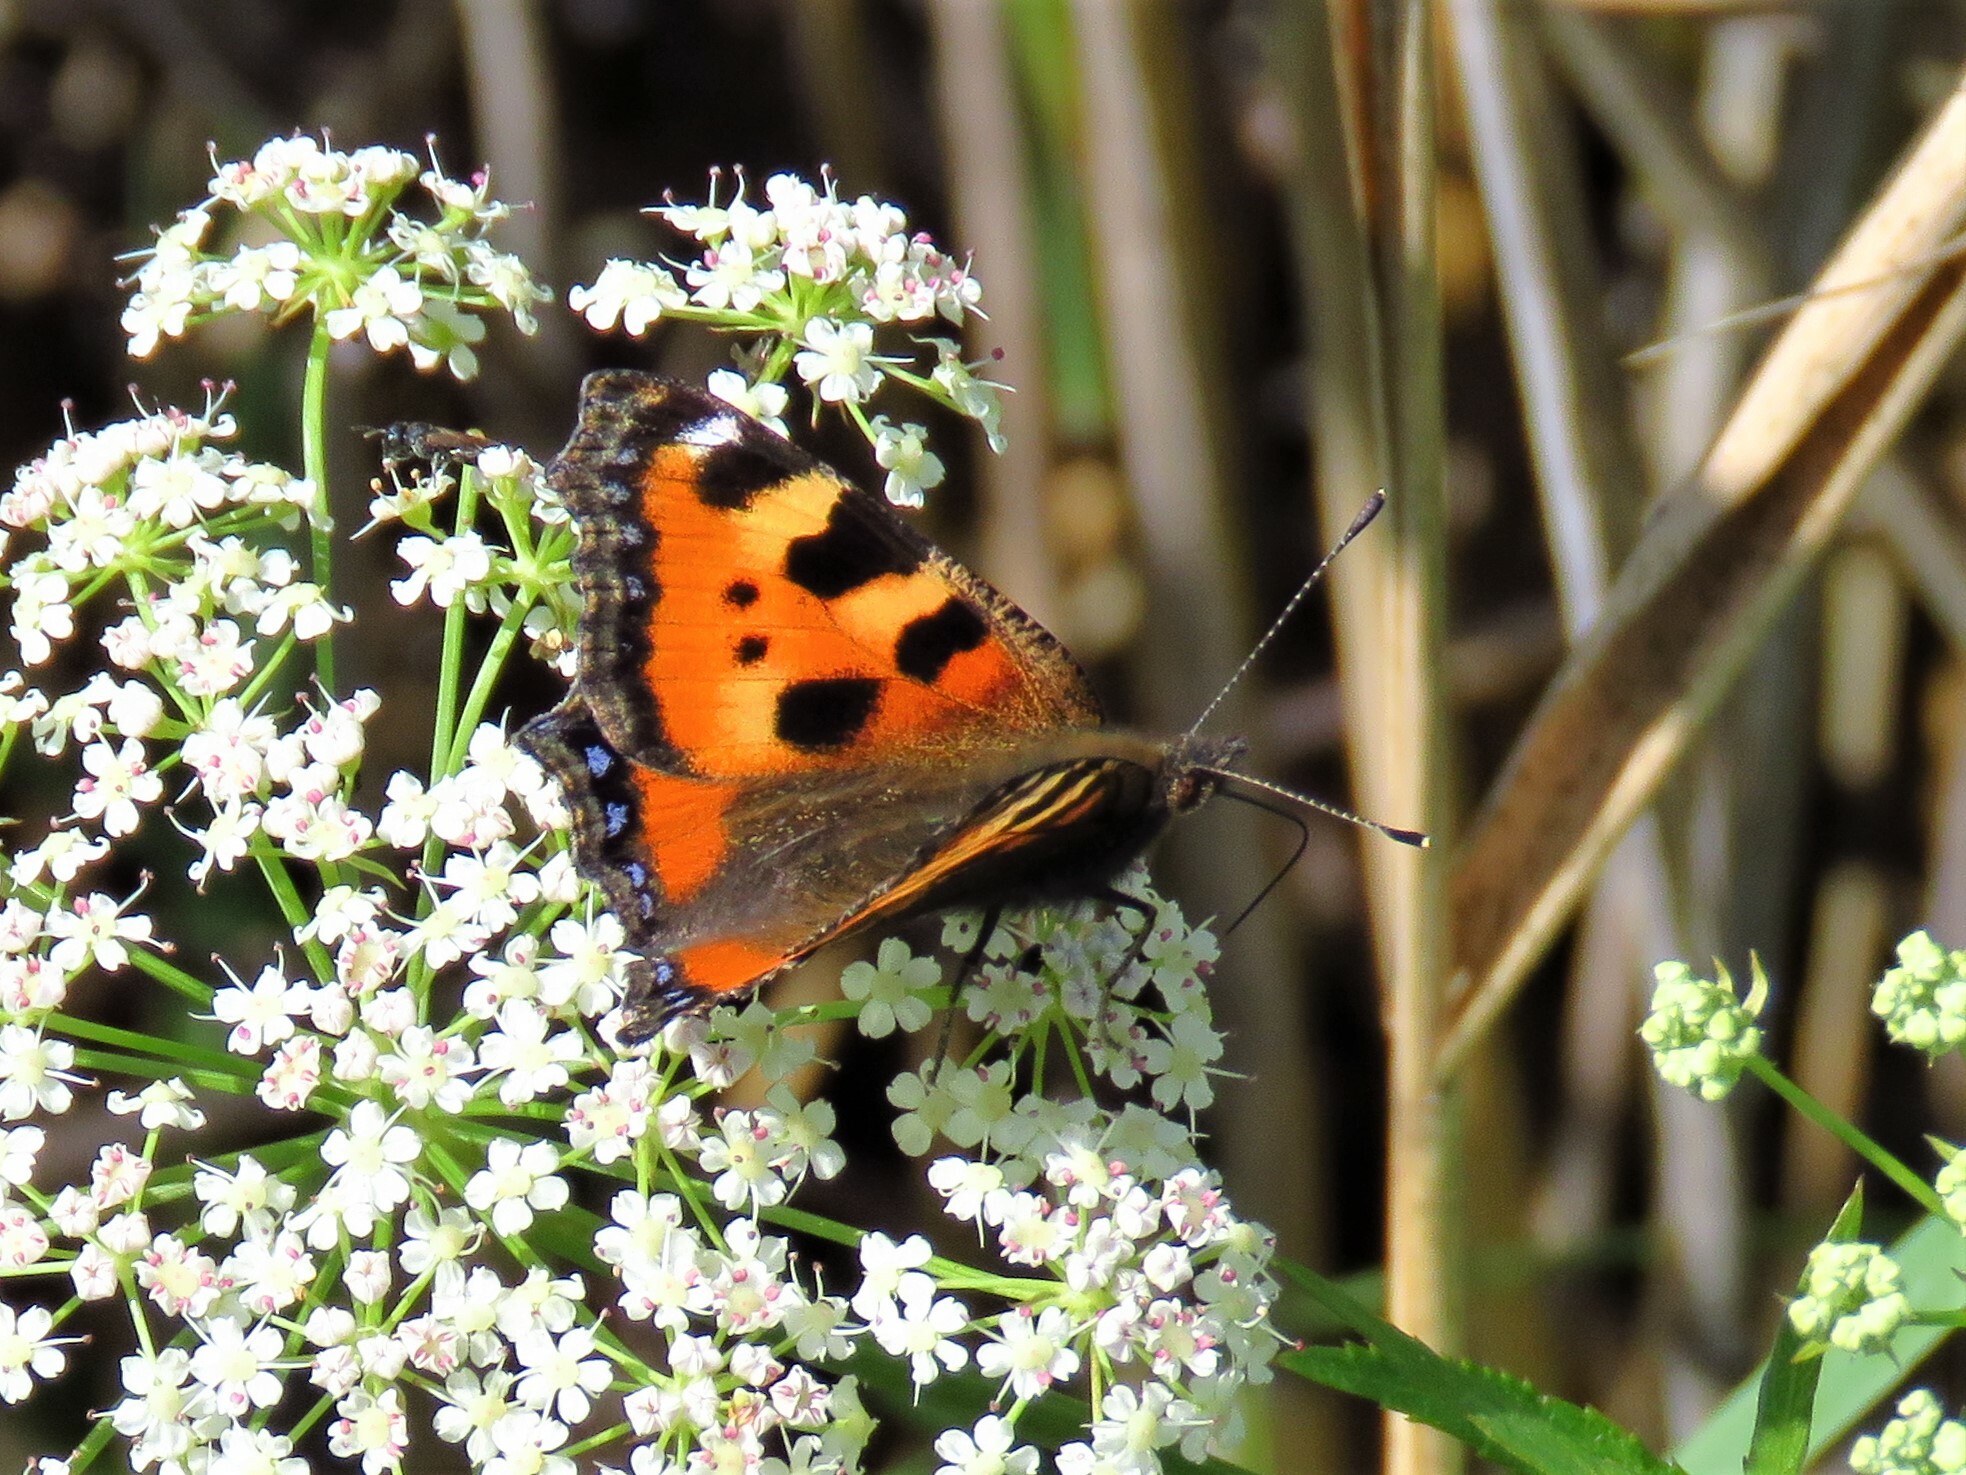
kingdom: Animalia
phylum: Arthropoda
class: Insecta
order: Lepidoptera
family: Nymphalidae
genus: Aglais
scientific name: Aglais urticae
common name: Small tortoiseshell
